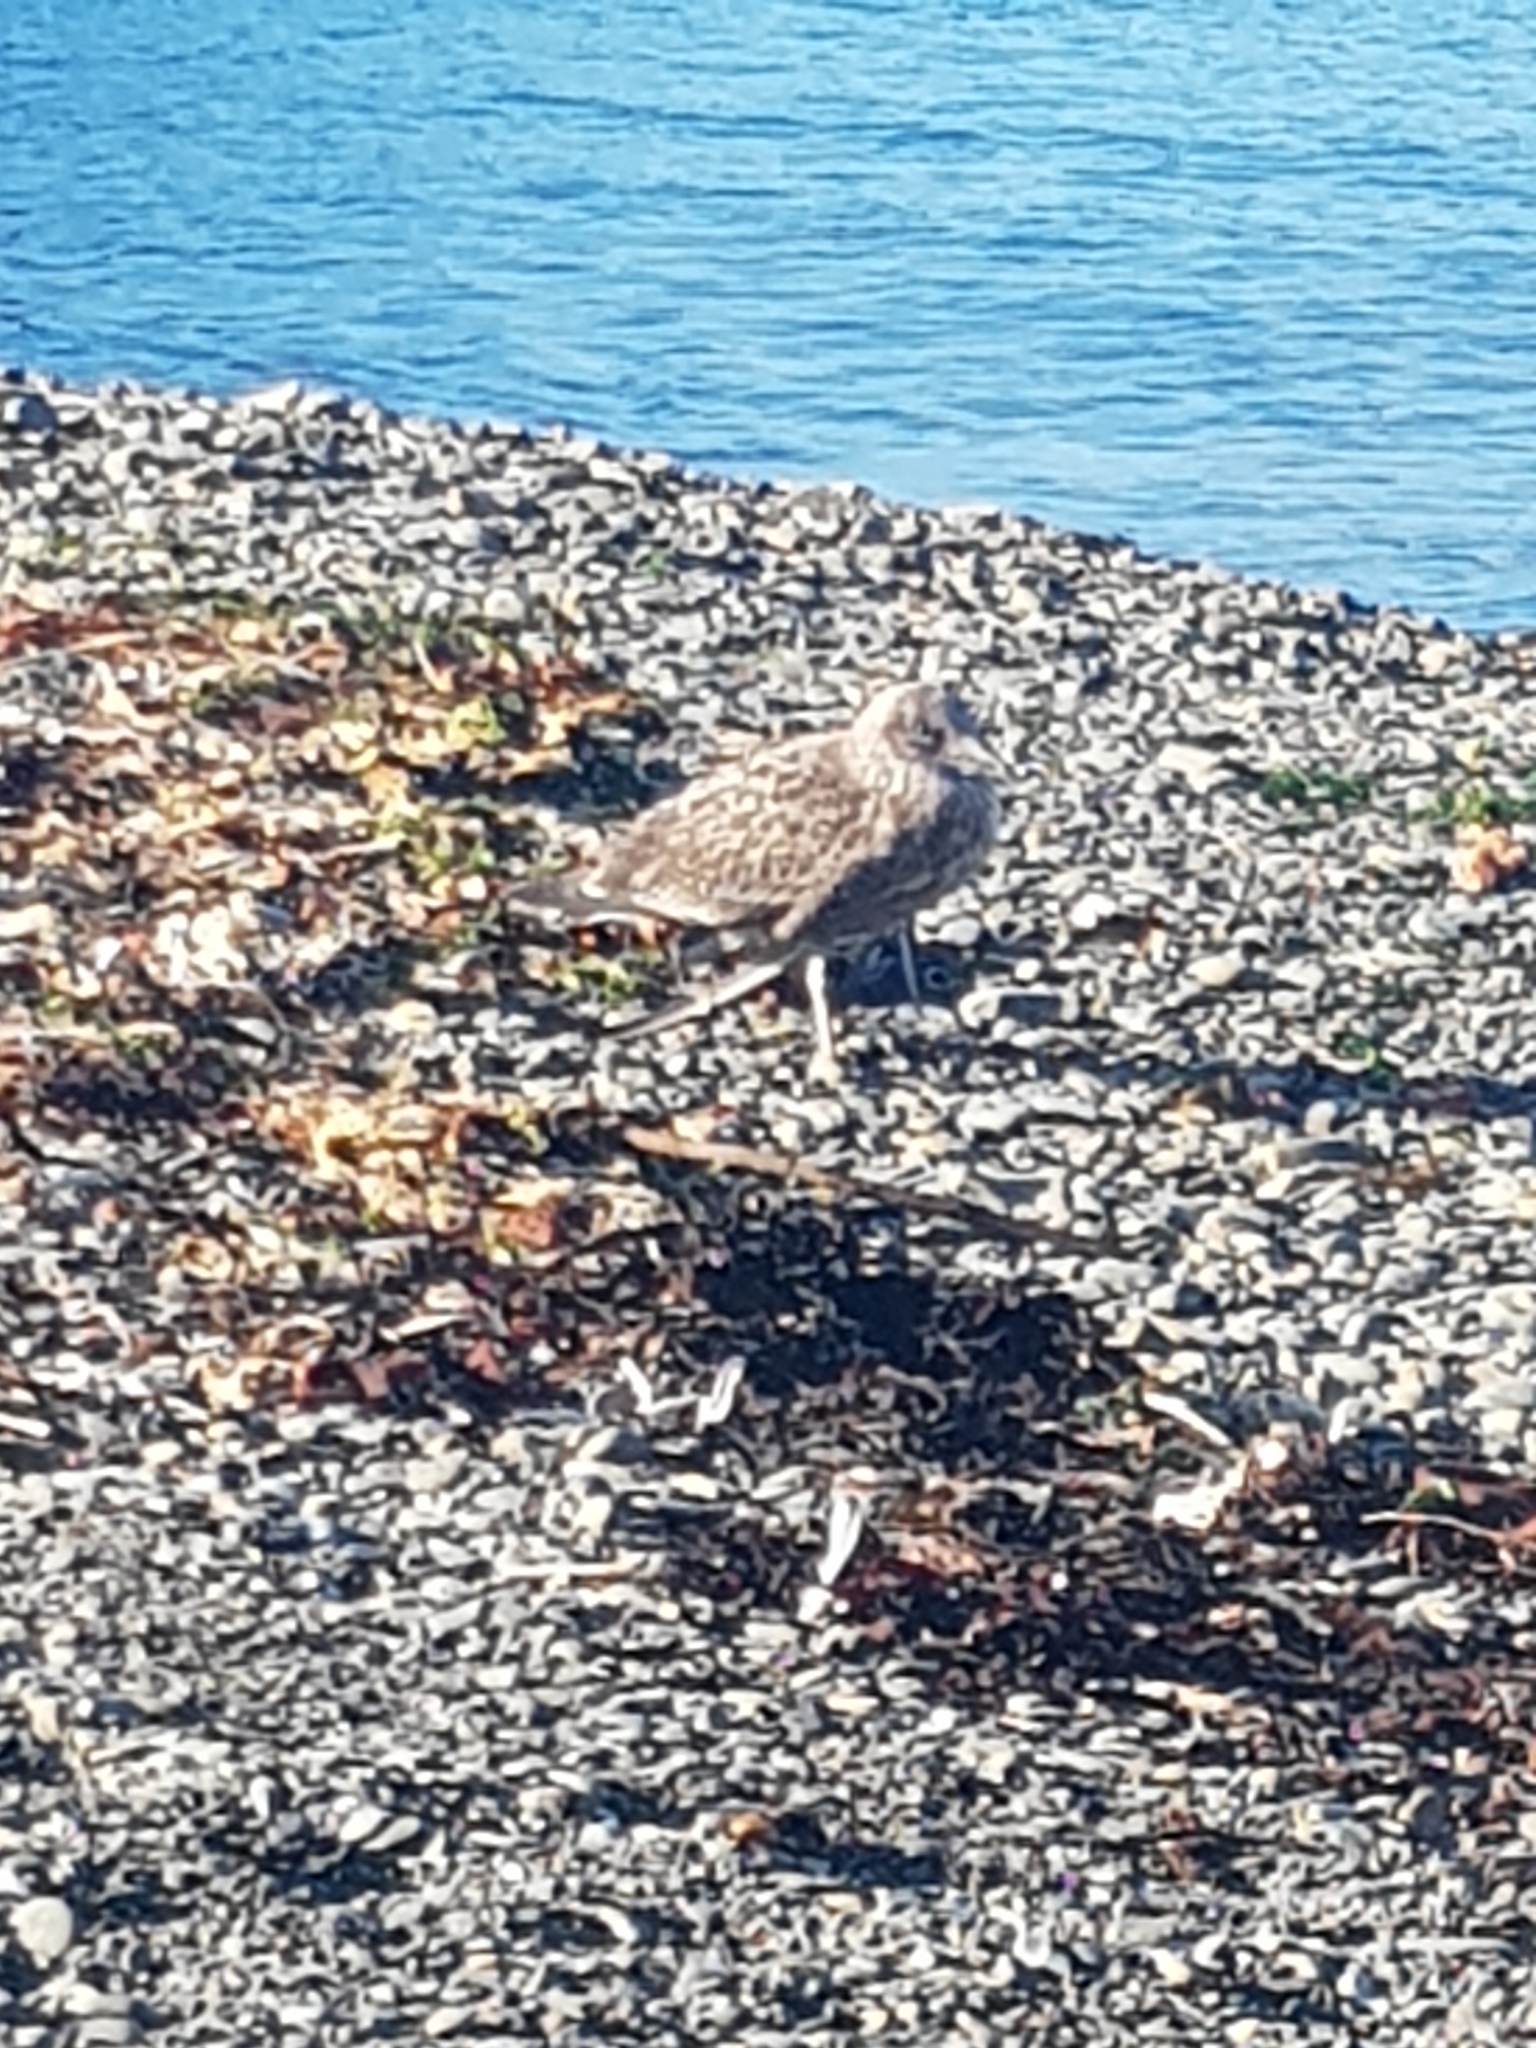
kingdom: Animalia
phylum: Chordata
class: Aves
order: Charadriiformes
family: Laridae
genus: Larus
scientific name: Larus dominicanus
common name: Kelp gull
